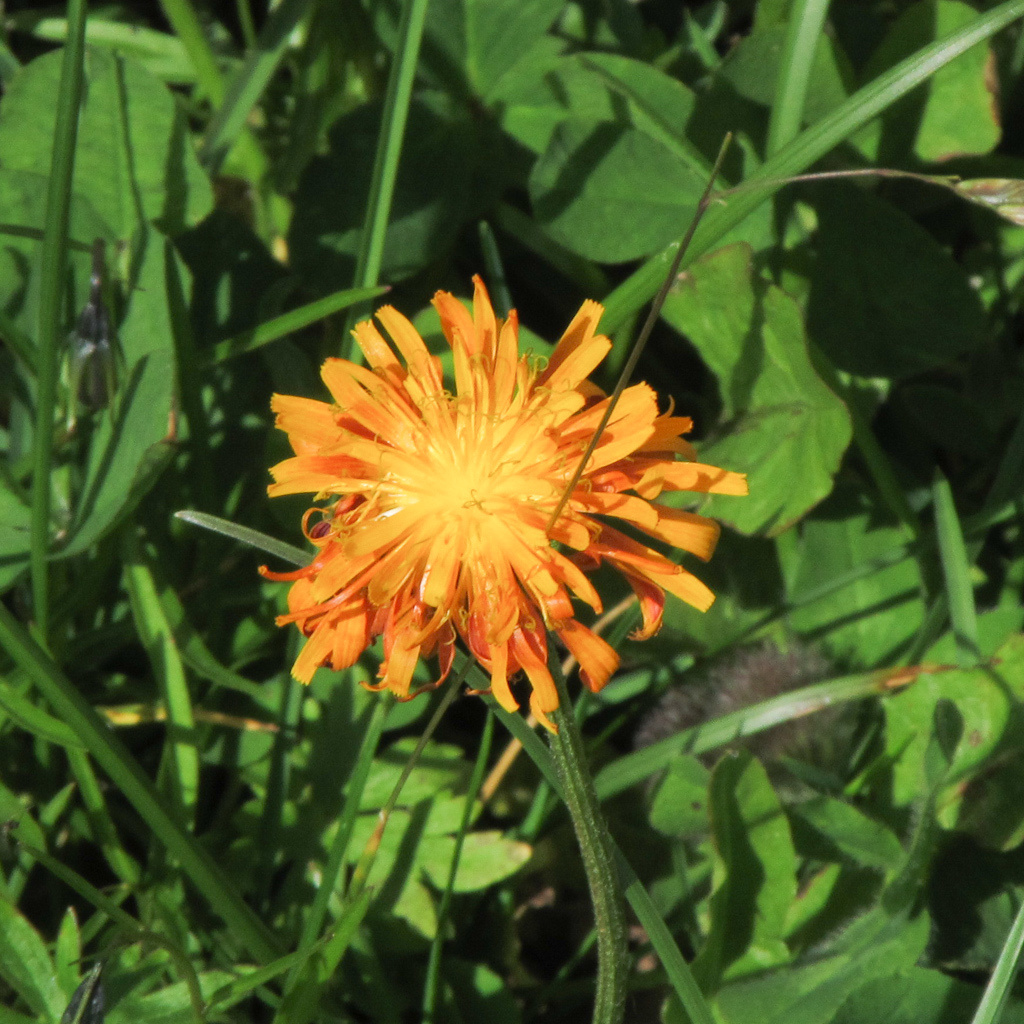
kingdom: Plantae
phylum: Tracheophyta
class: Magnoliopsida
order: Asterales
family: Asteraceae
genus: Crepis
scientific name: Crepis aurea
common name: Golden hawk's-beard
